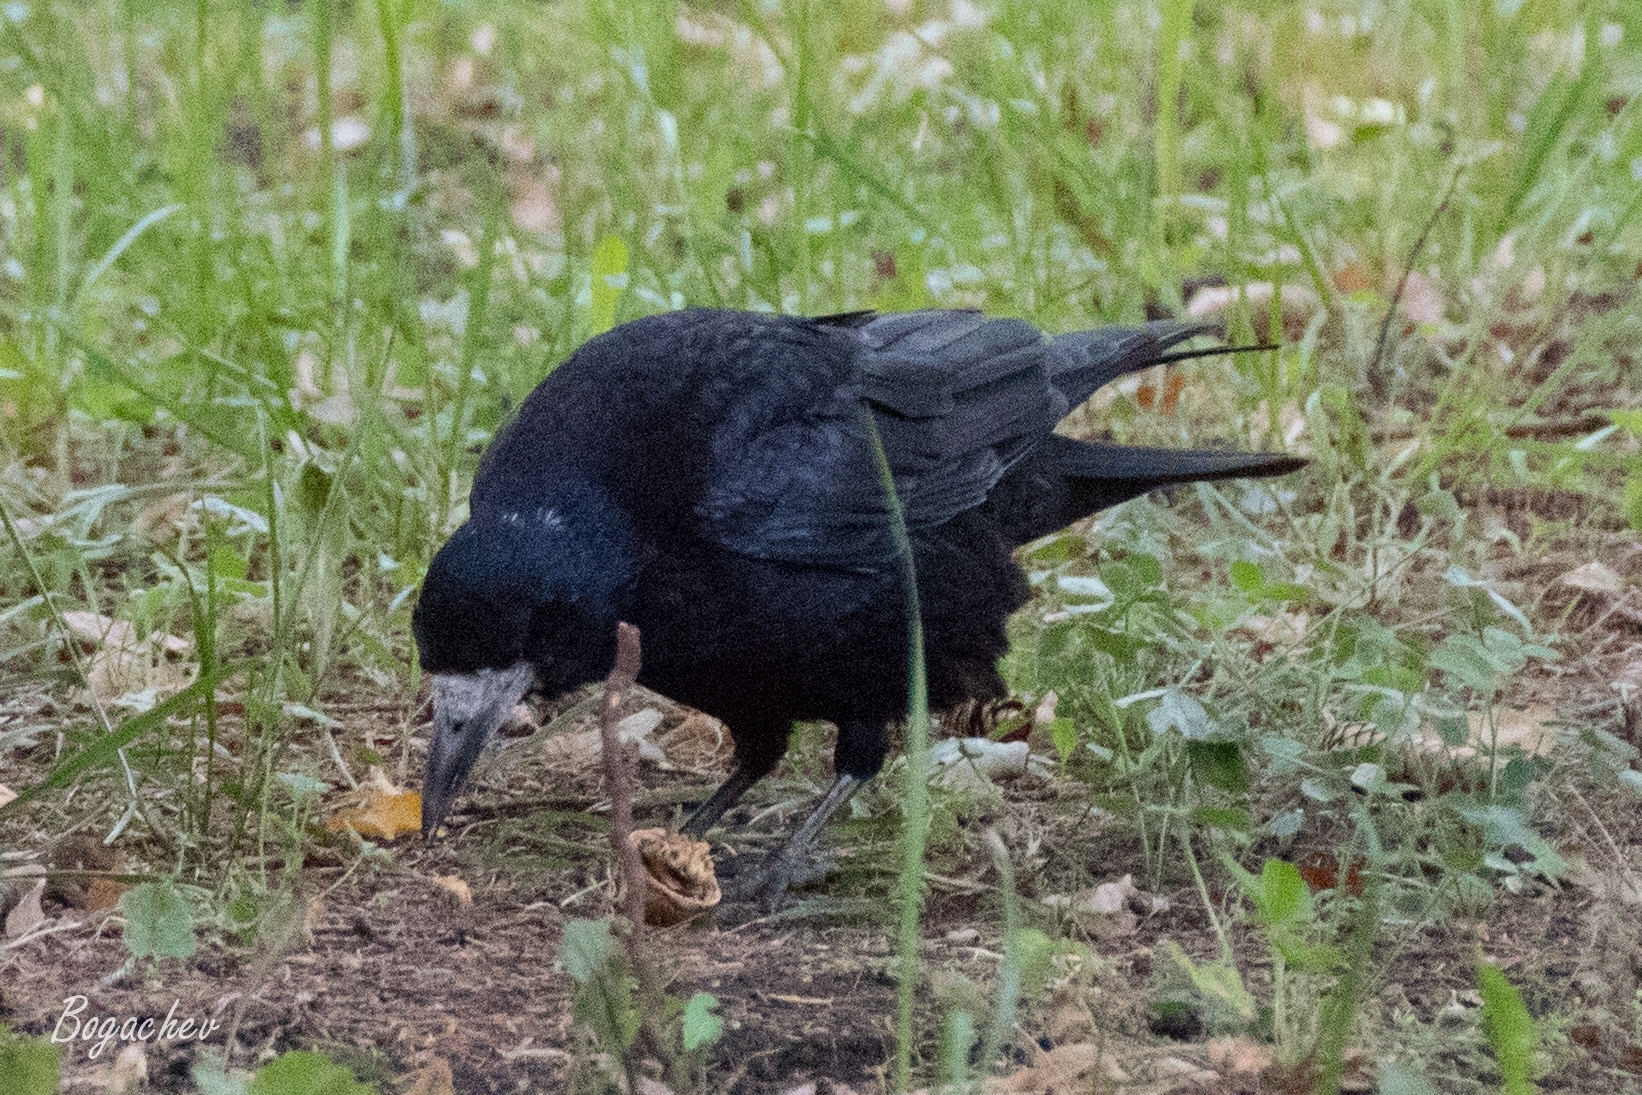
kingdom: Animalia
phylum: Chordata
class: Aves
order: Passeriformes
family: Corvidae
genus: Corvus
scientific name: Corvus frugilegus
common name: Rook
